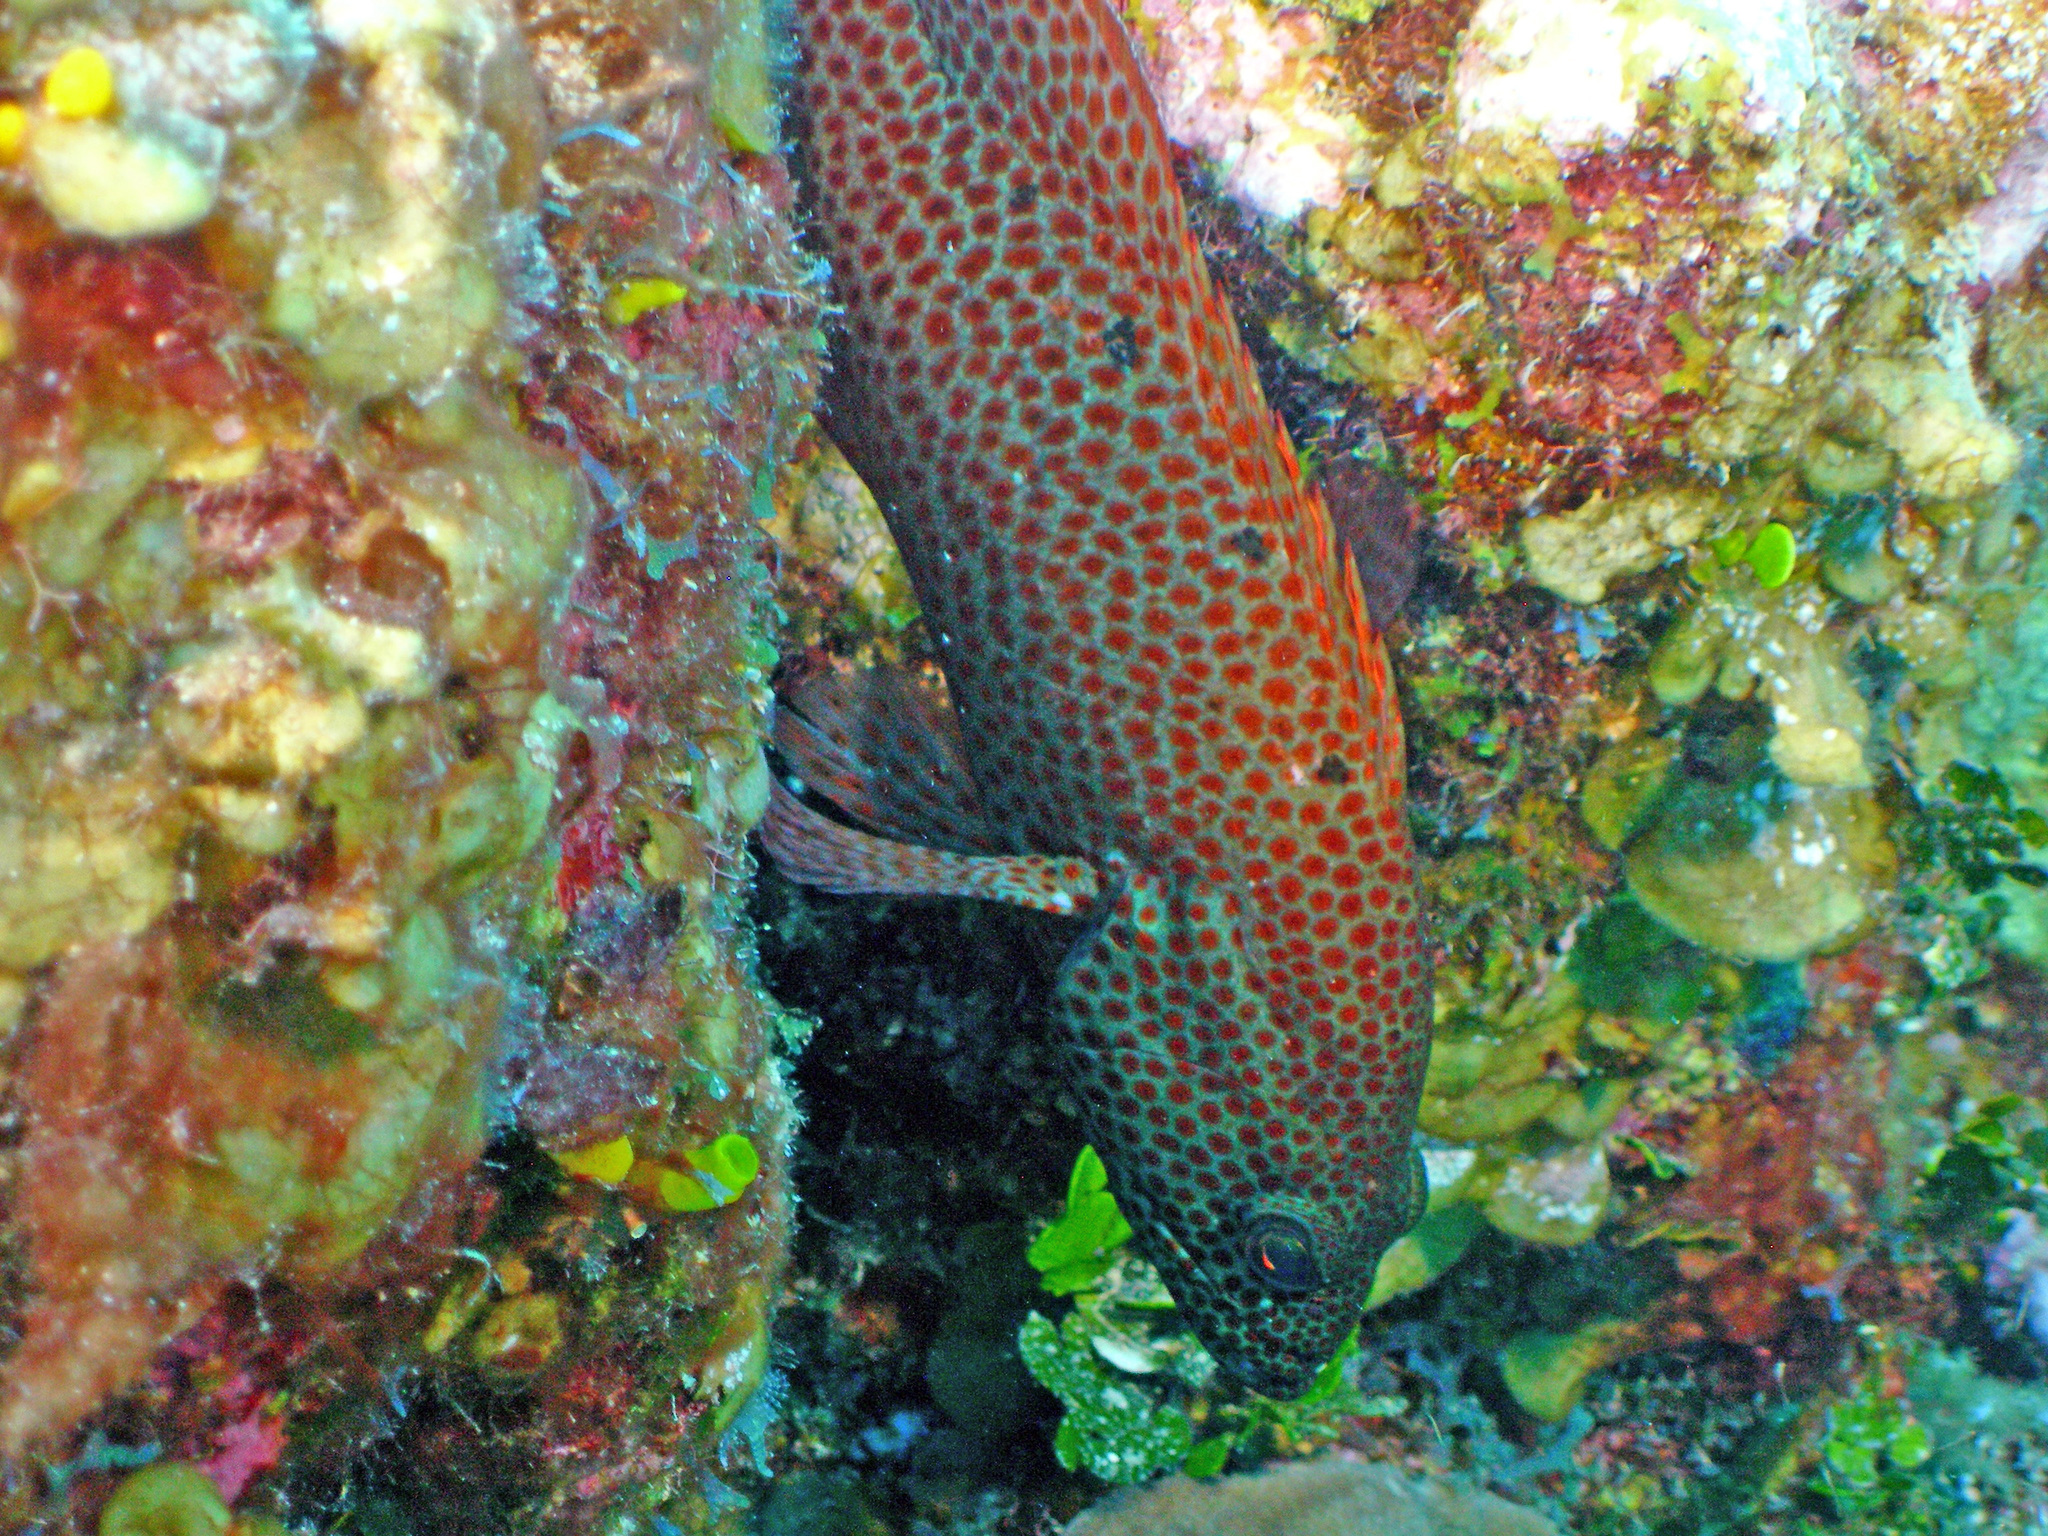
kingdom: Animalia
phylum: Chordata
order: Perciformes
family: Serranidae
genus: Cephalopholis
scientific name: Cephalopholis cruentata
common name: Graysby
